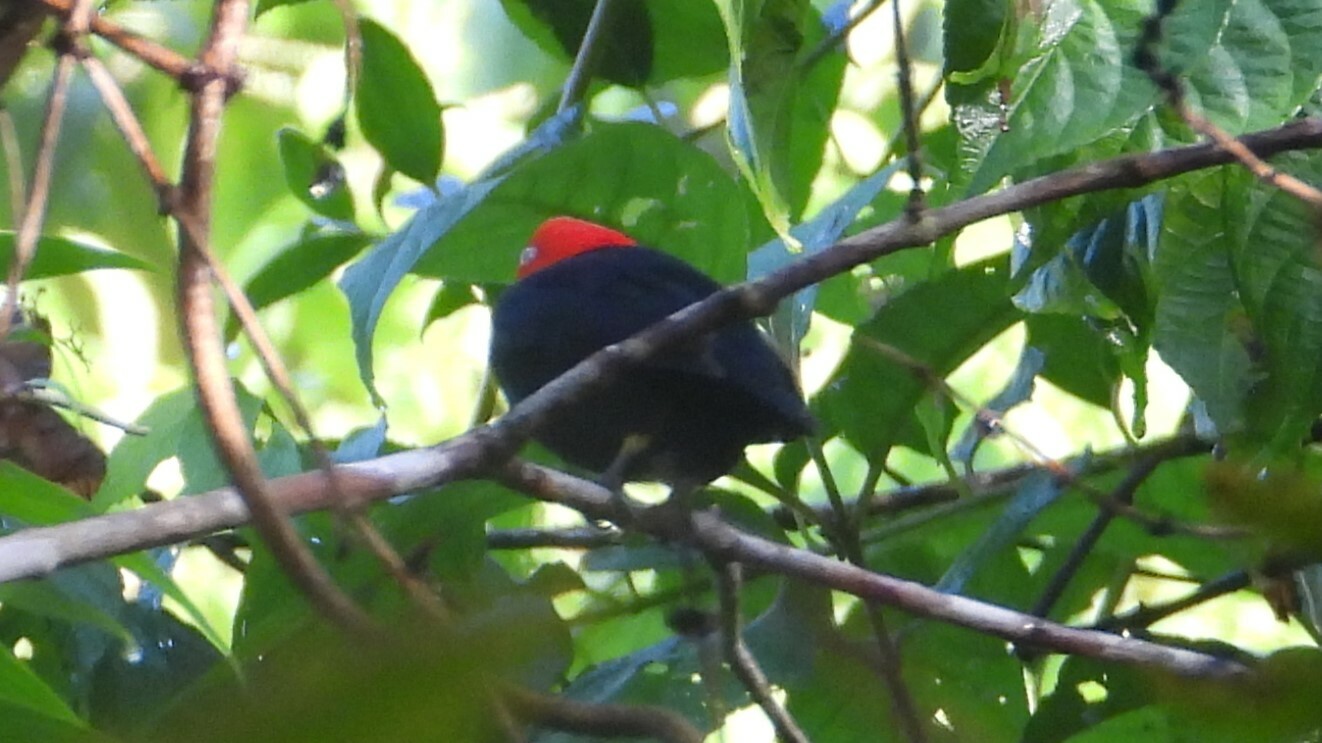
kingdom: Animalia
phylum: Chordata
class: Aves
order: Passeriformes
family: Pipridae
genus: Pipra
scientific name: Pipra mentalis
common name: Red-capped manakin
